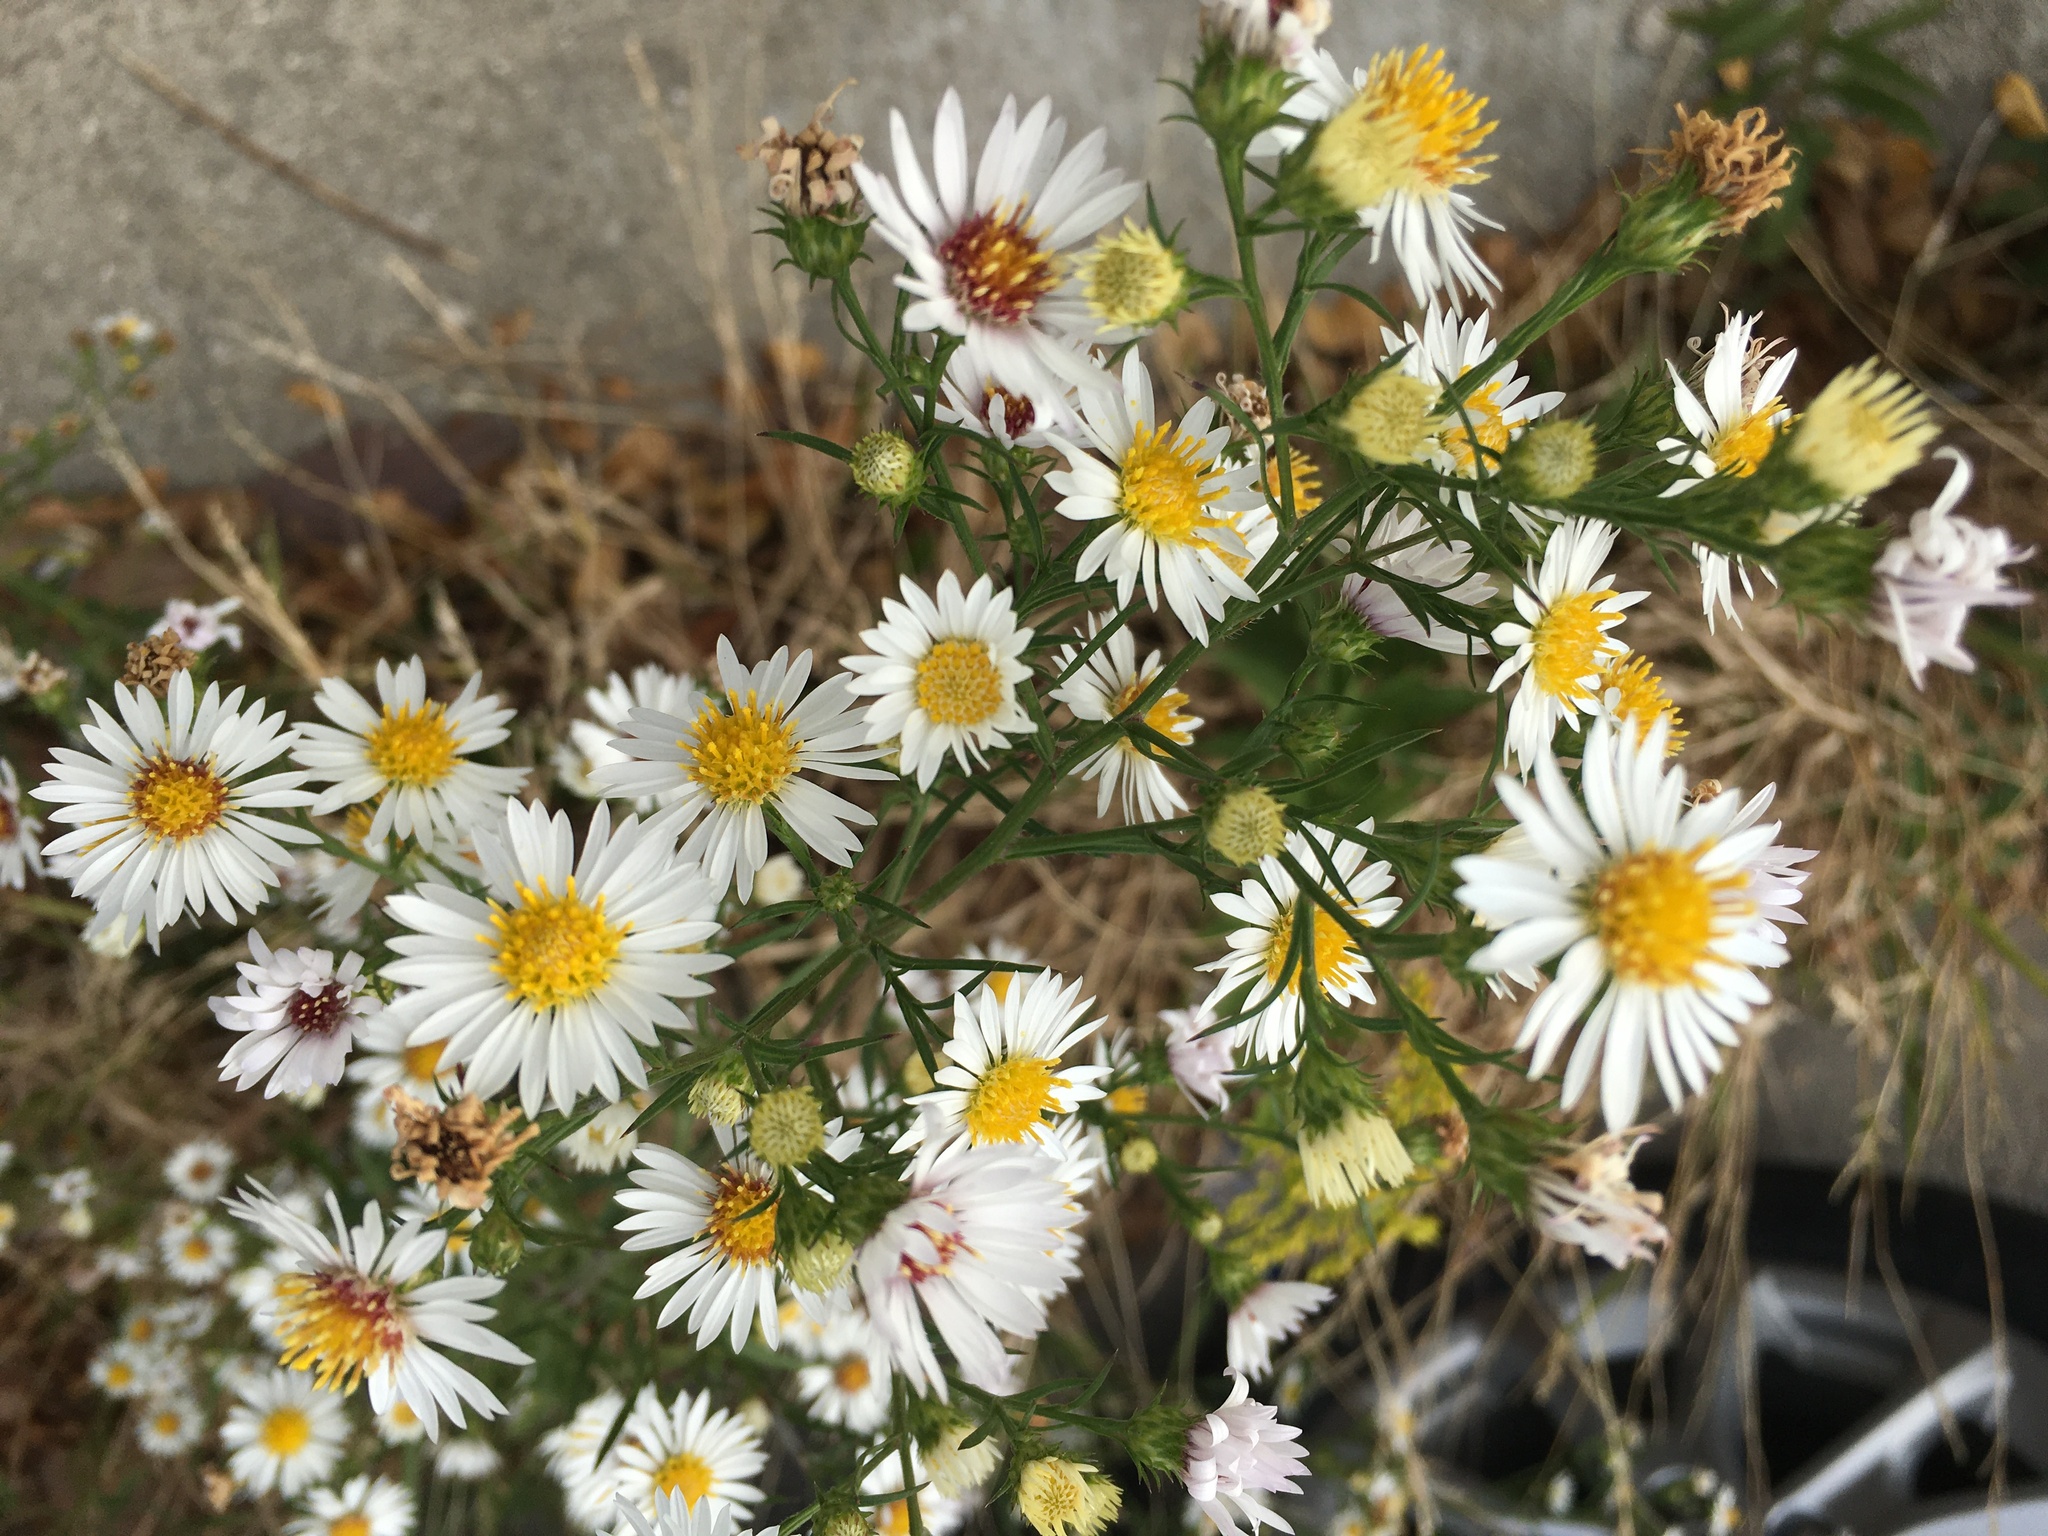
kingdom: Plantae
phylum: Tracheophyta
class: Magnoliopsida
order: Asterales
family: Asteraceae
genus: Symphyotrichum
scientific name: Symphyotrichum pilosum
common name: Awl aster
